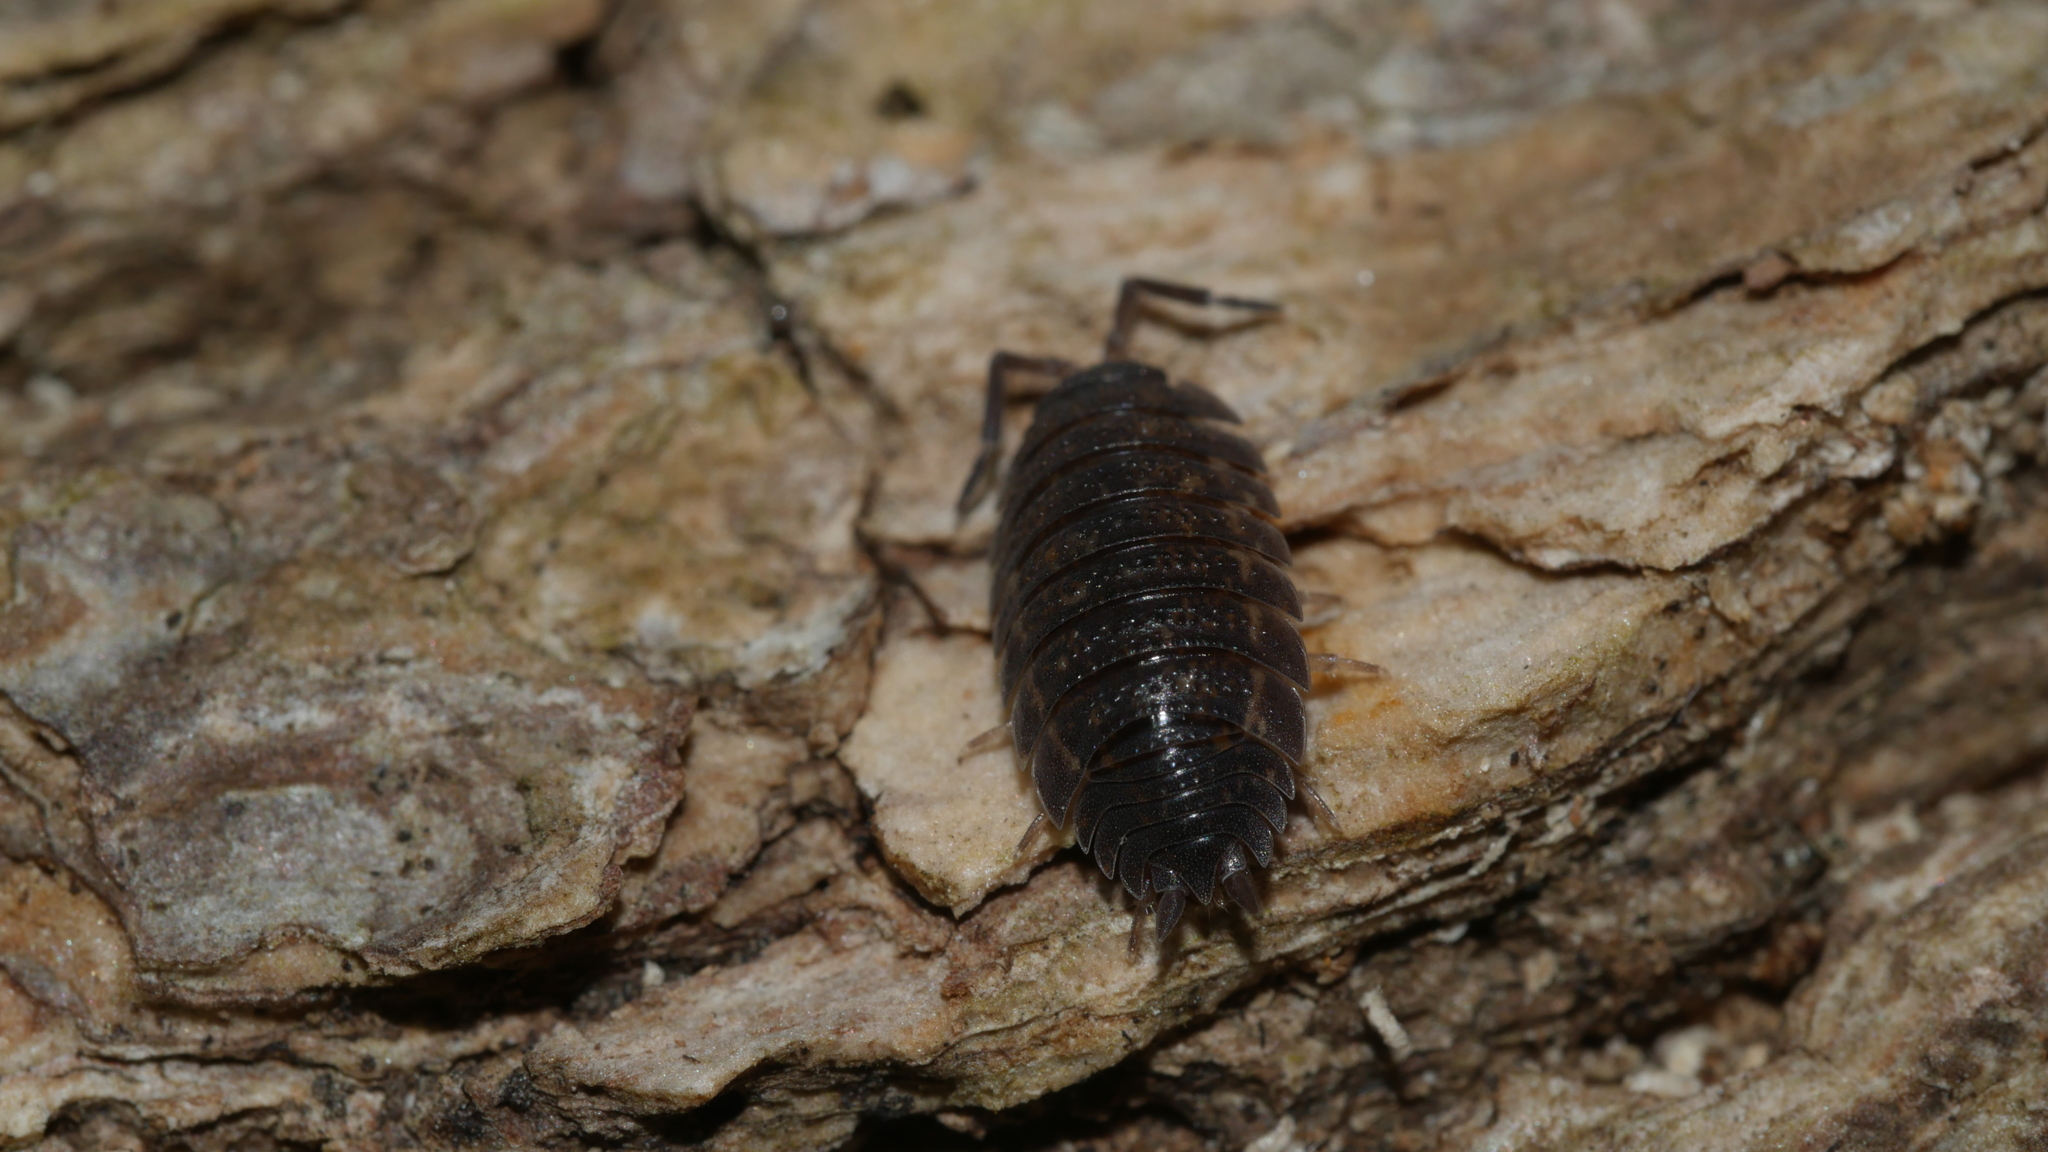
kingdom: Animalia
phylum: Arthropoda
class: Malacostraca
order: Isopoda
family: Porcellionidae
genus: Porcellio
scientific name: Porcellio scaber
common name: Common rough woodlouse
